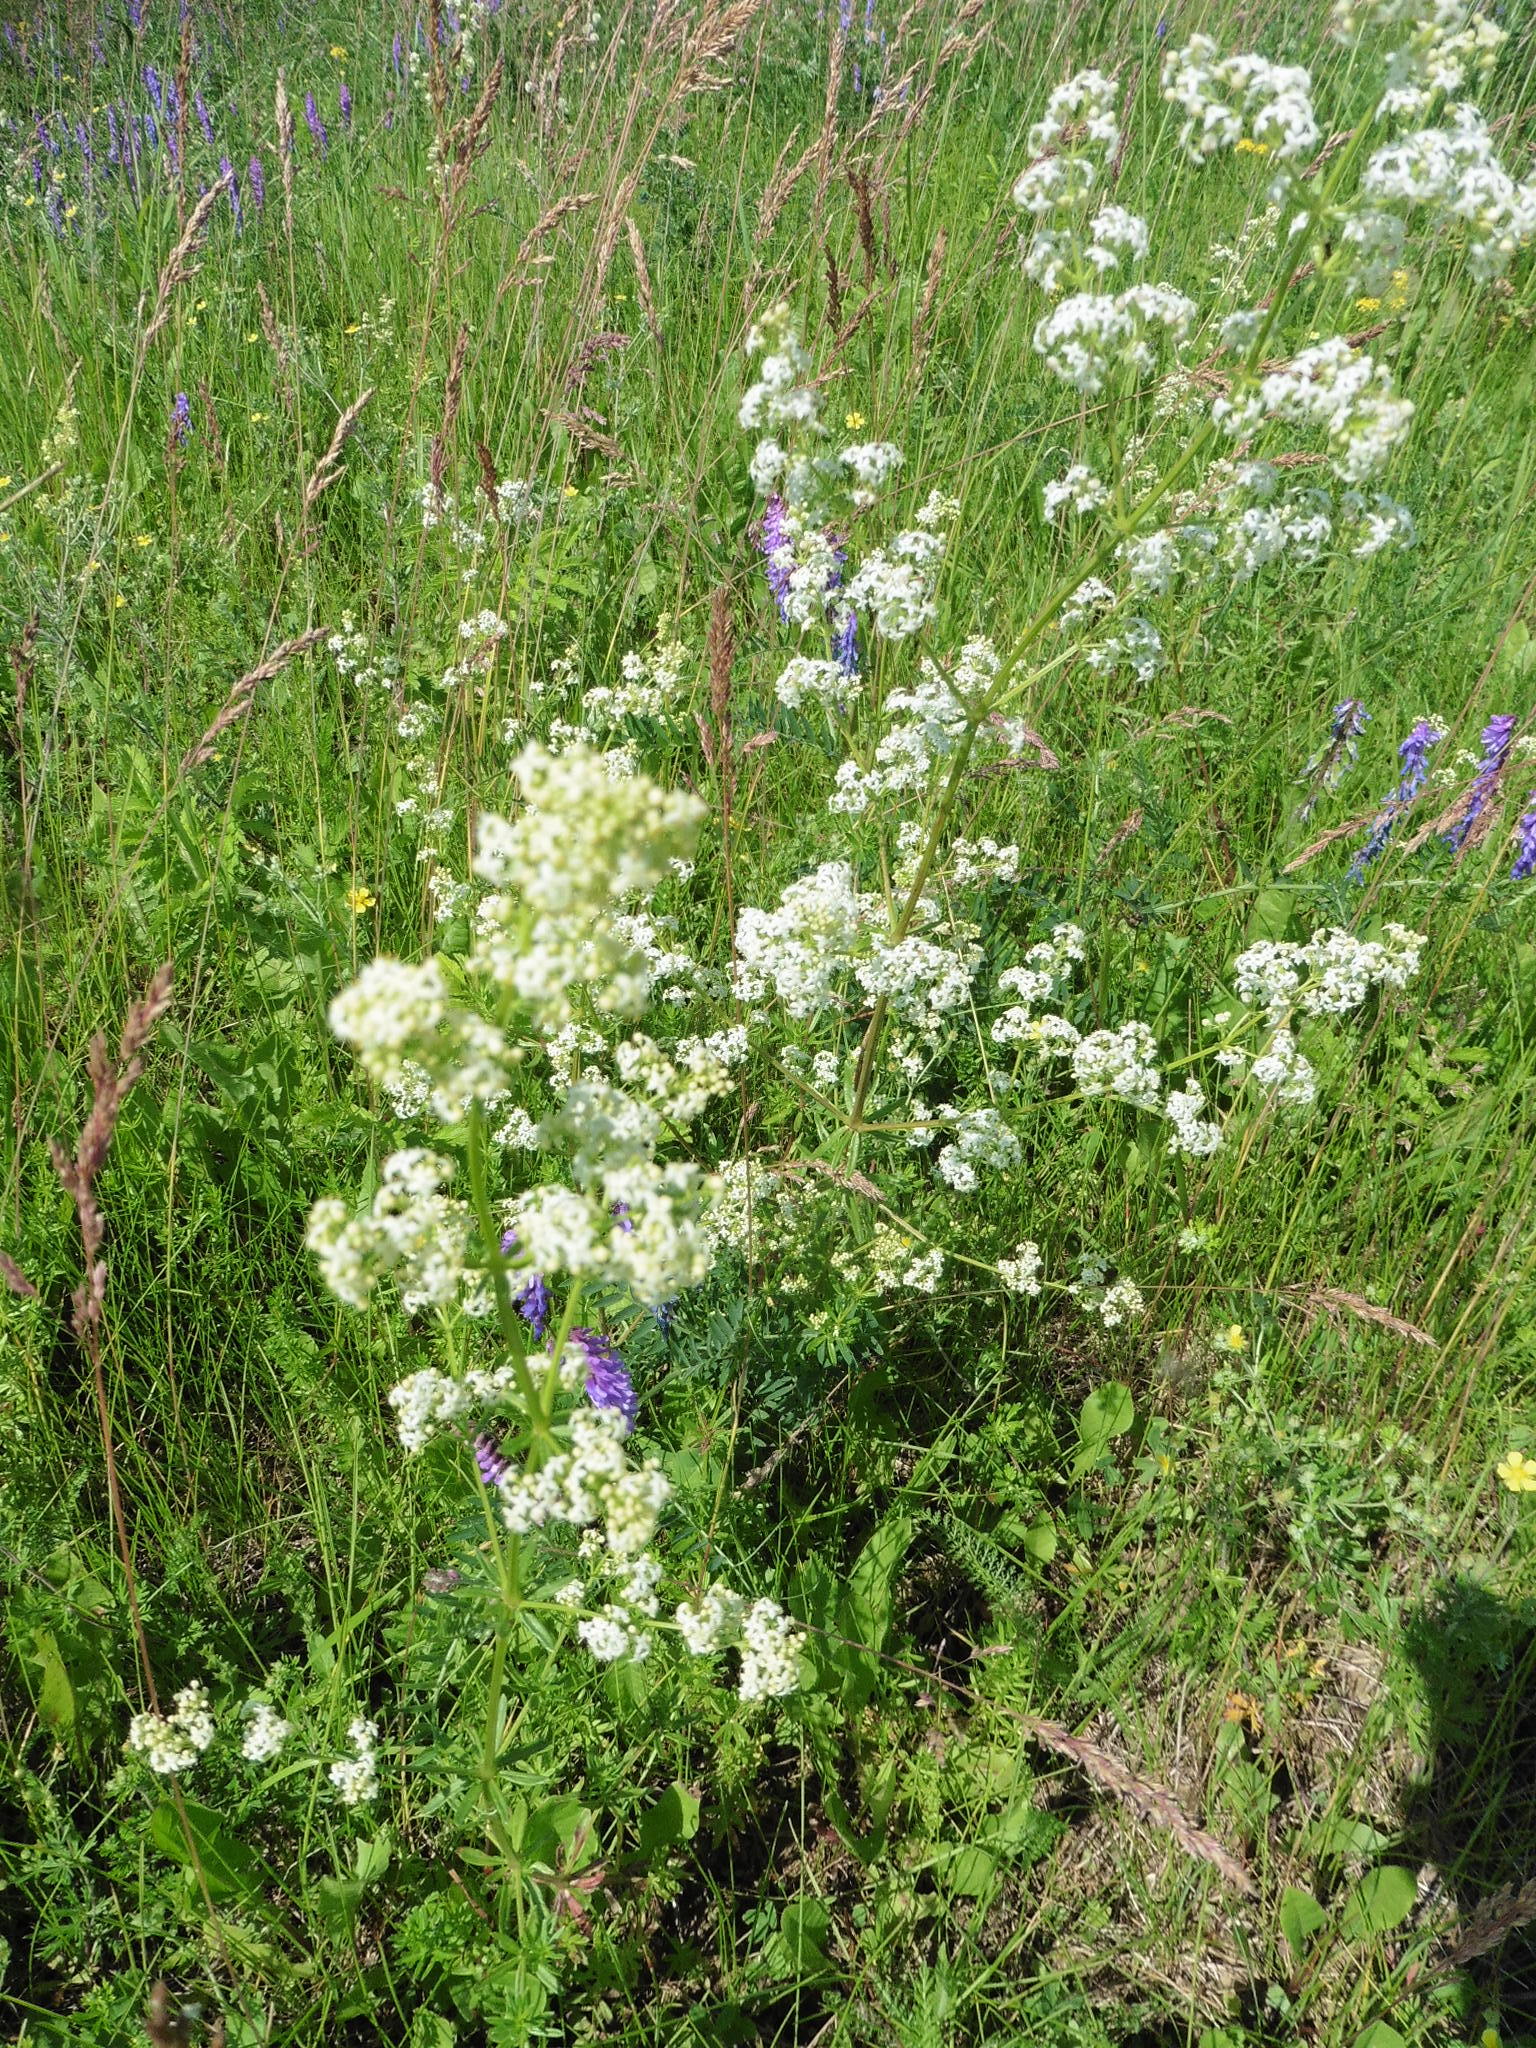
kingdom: Plantae
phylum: Tracheophyta
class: Magnoliopsida
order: Gentianales
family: Rubiaceae
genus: Galium
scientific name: Galium mollugo
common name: Hedge bedstraw
